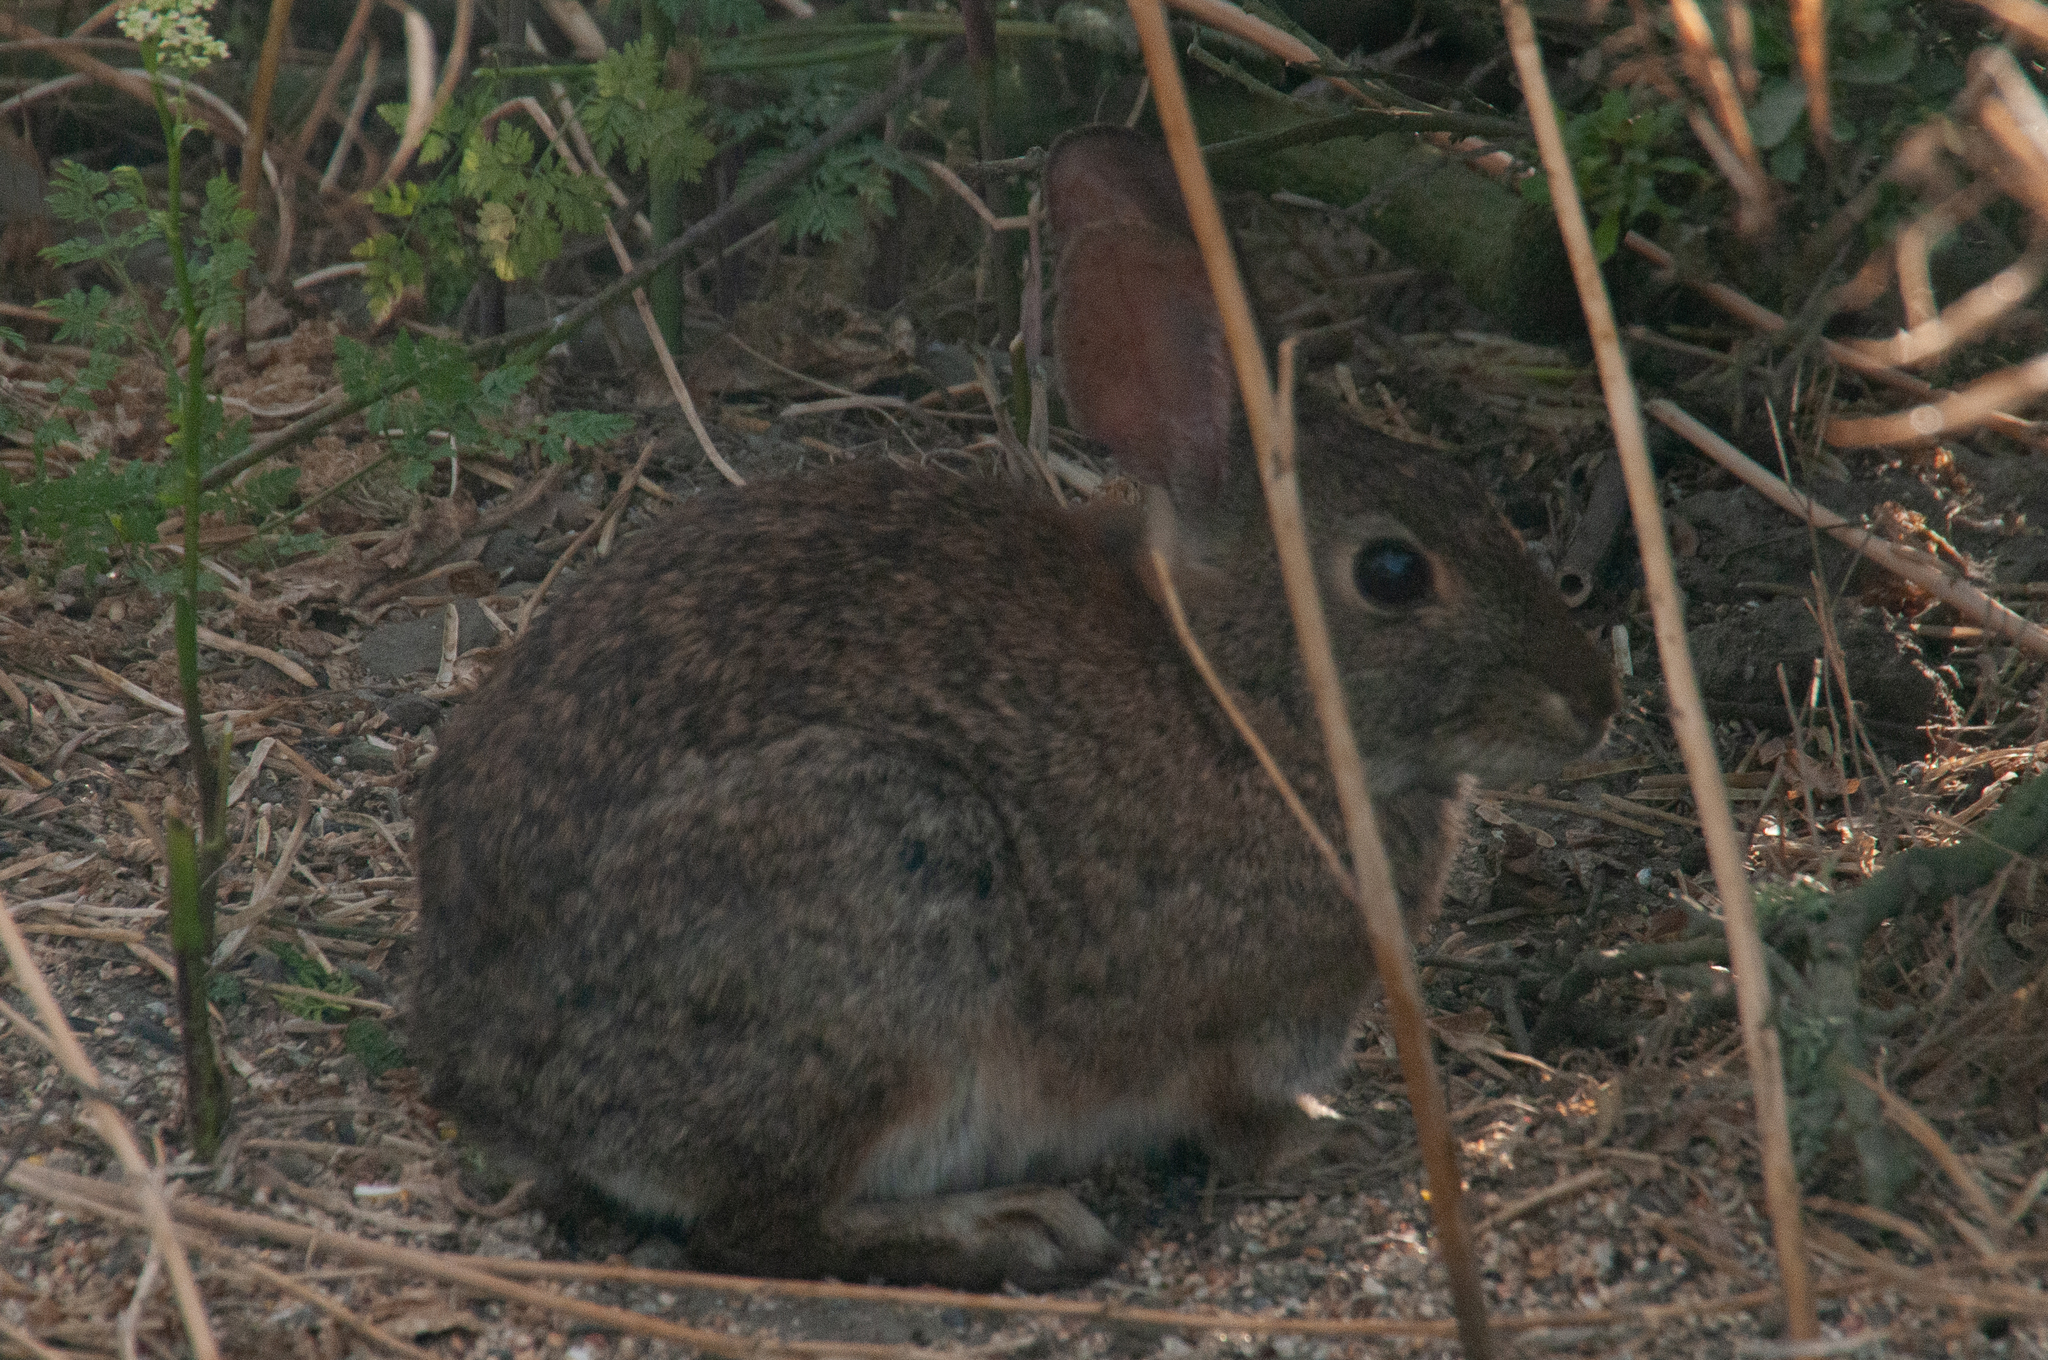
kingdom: Animalia
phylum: Chordata
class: Mammalia
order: Lagomorpha
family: Leporidae
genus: Sylvilagus
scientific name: Sylvilagus bachmani
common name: Brush rabbit
